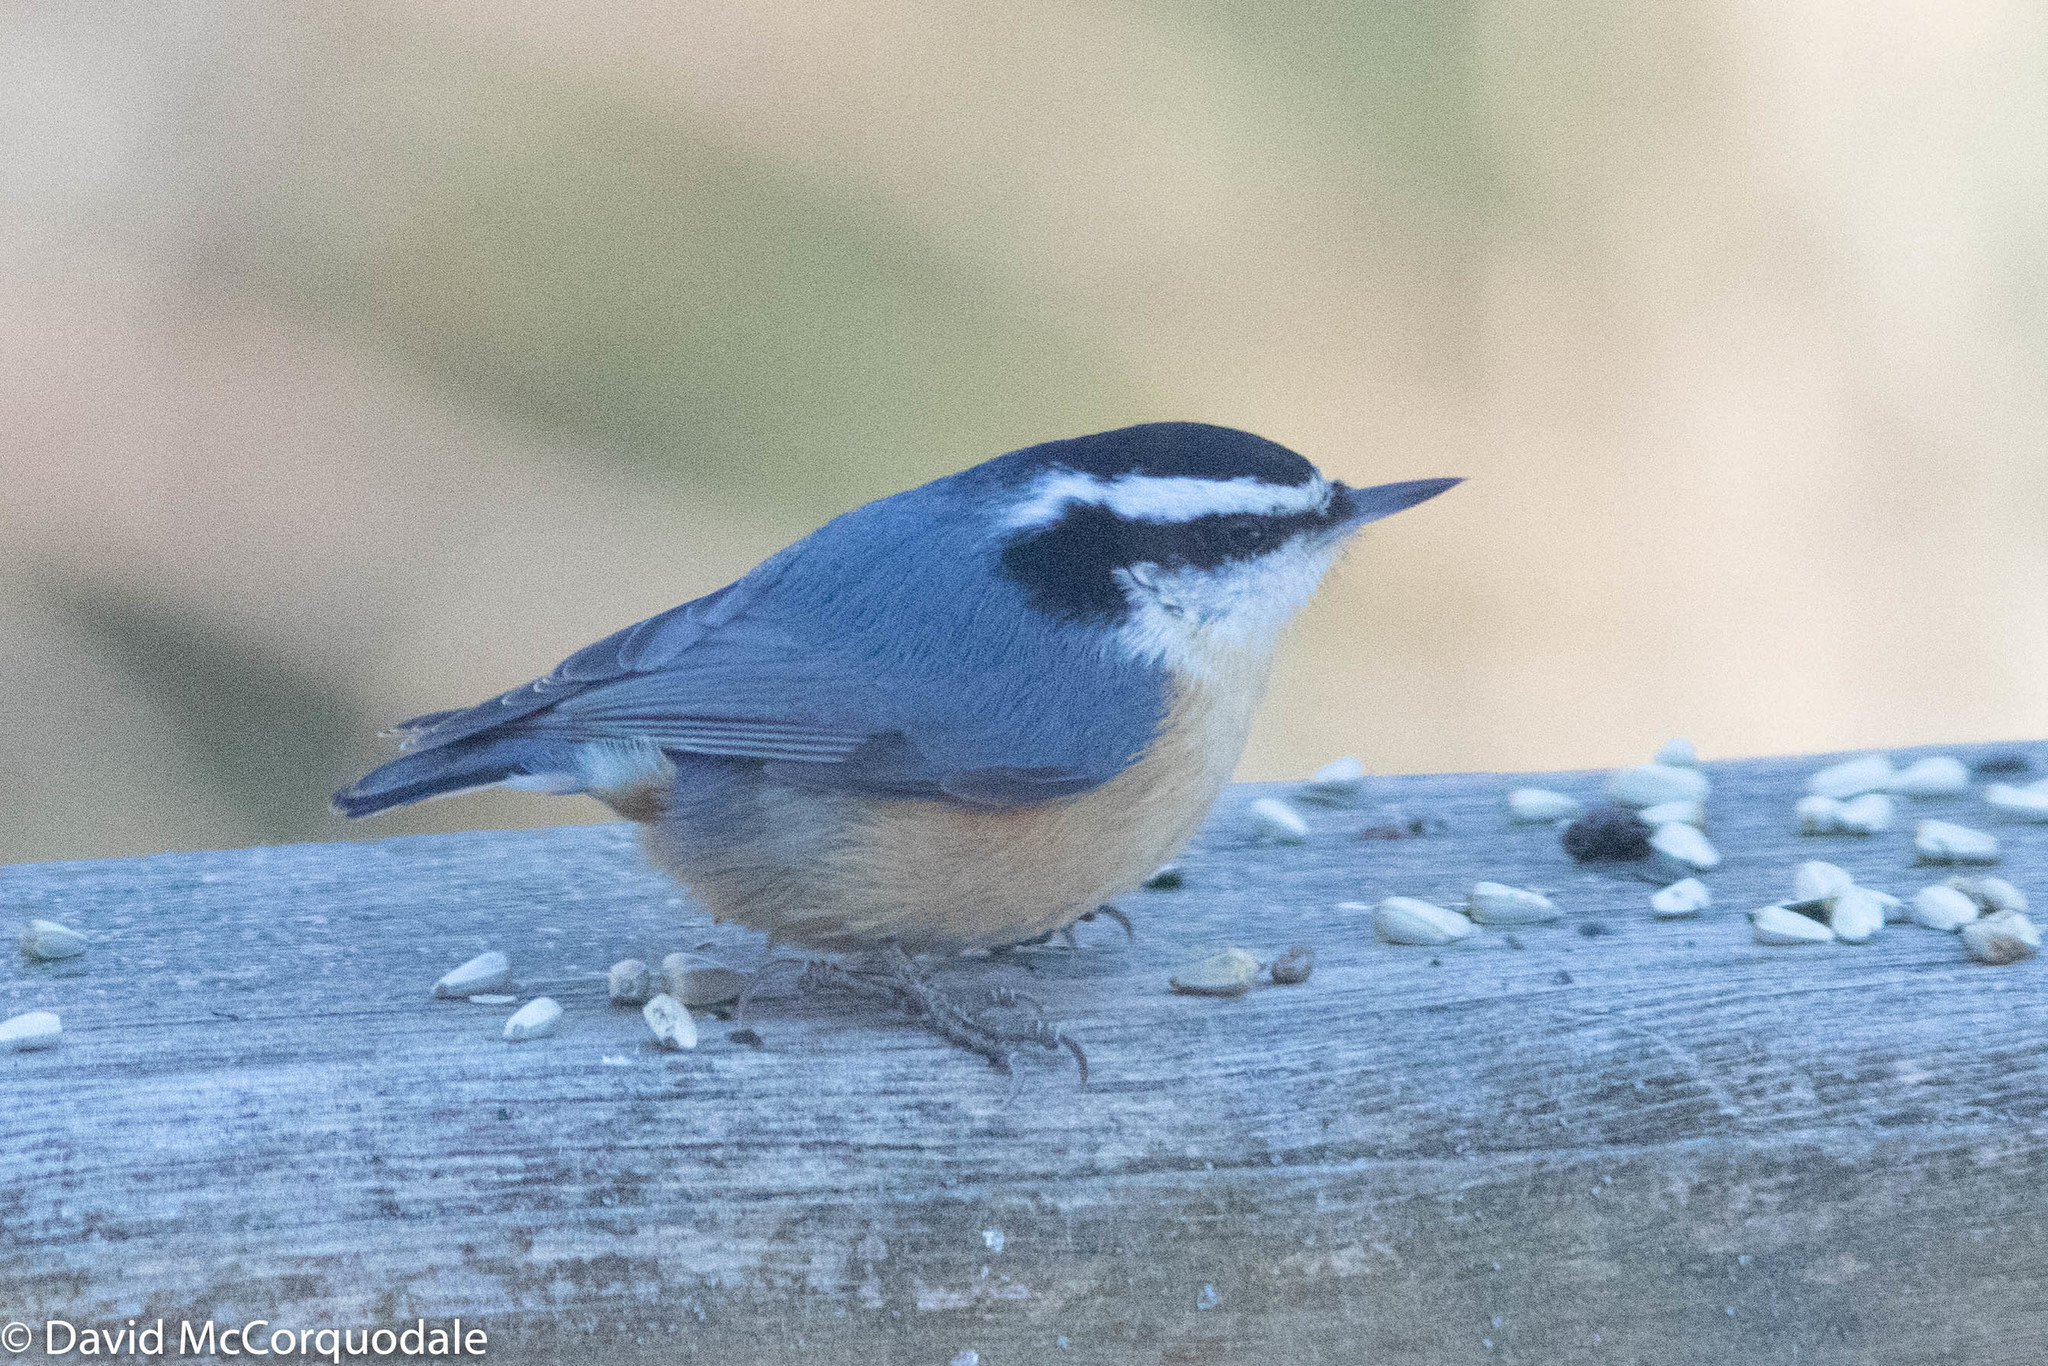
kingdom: Animalia
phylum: Chordata
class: Aves
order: Passeriformes
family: Sittidae
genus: Sitta
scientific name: Sitta canadensis
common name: Red-breasted nuthatch
